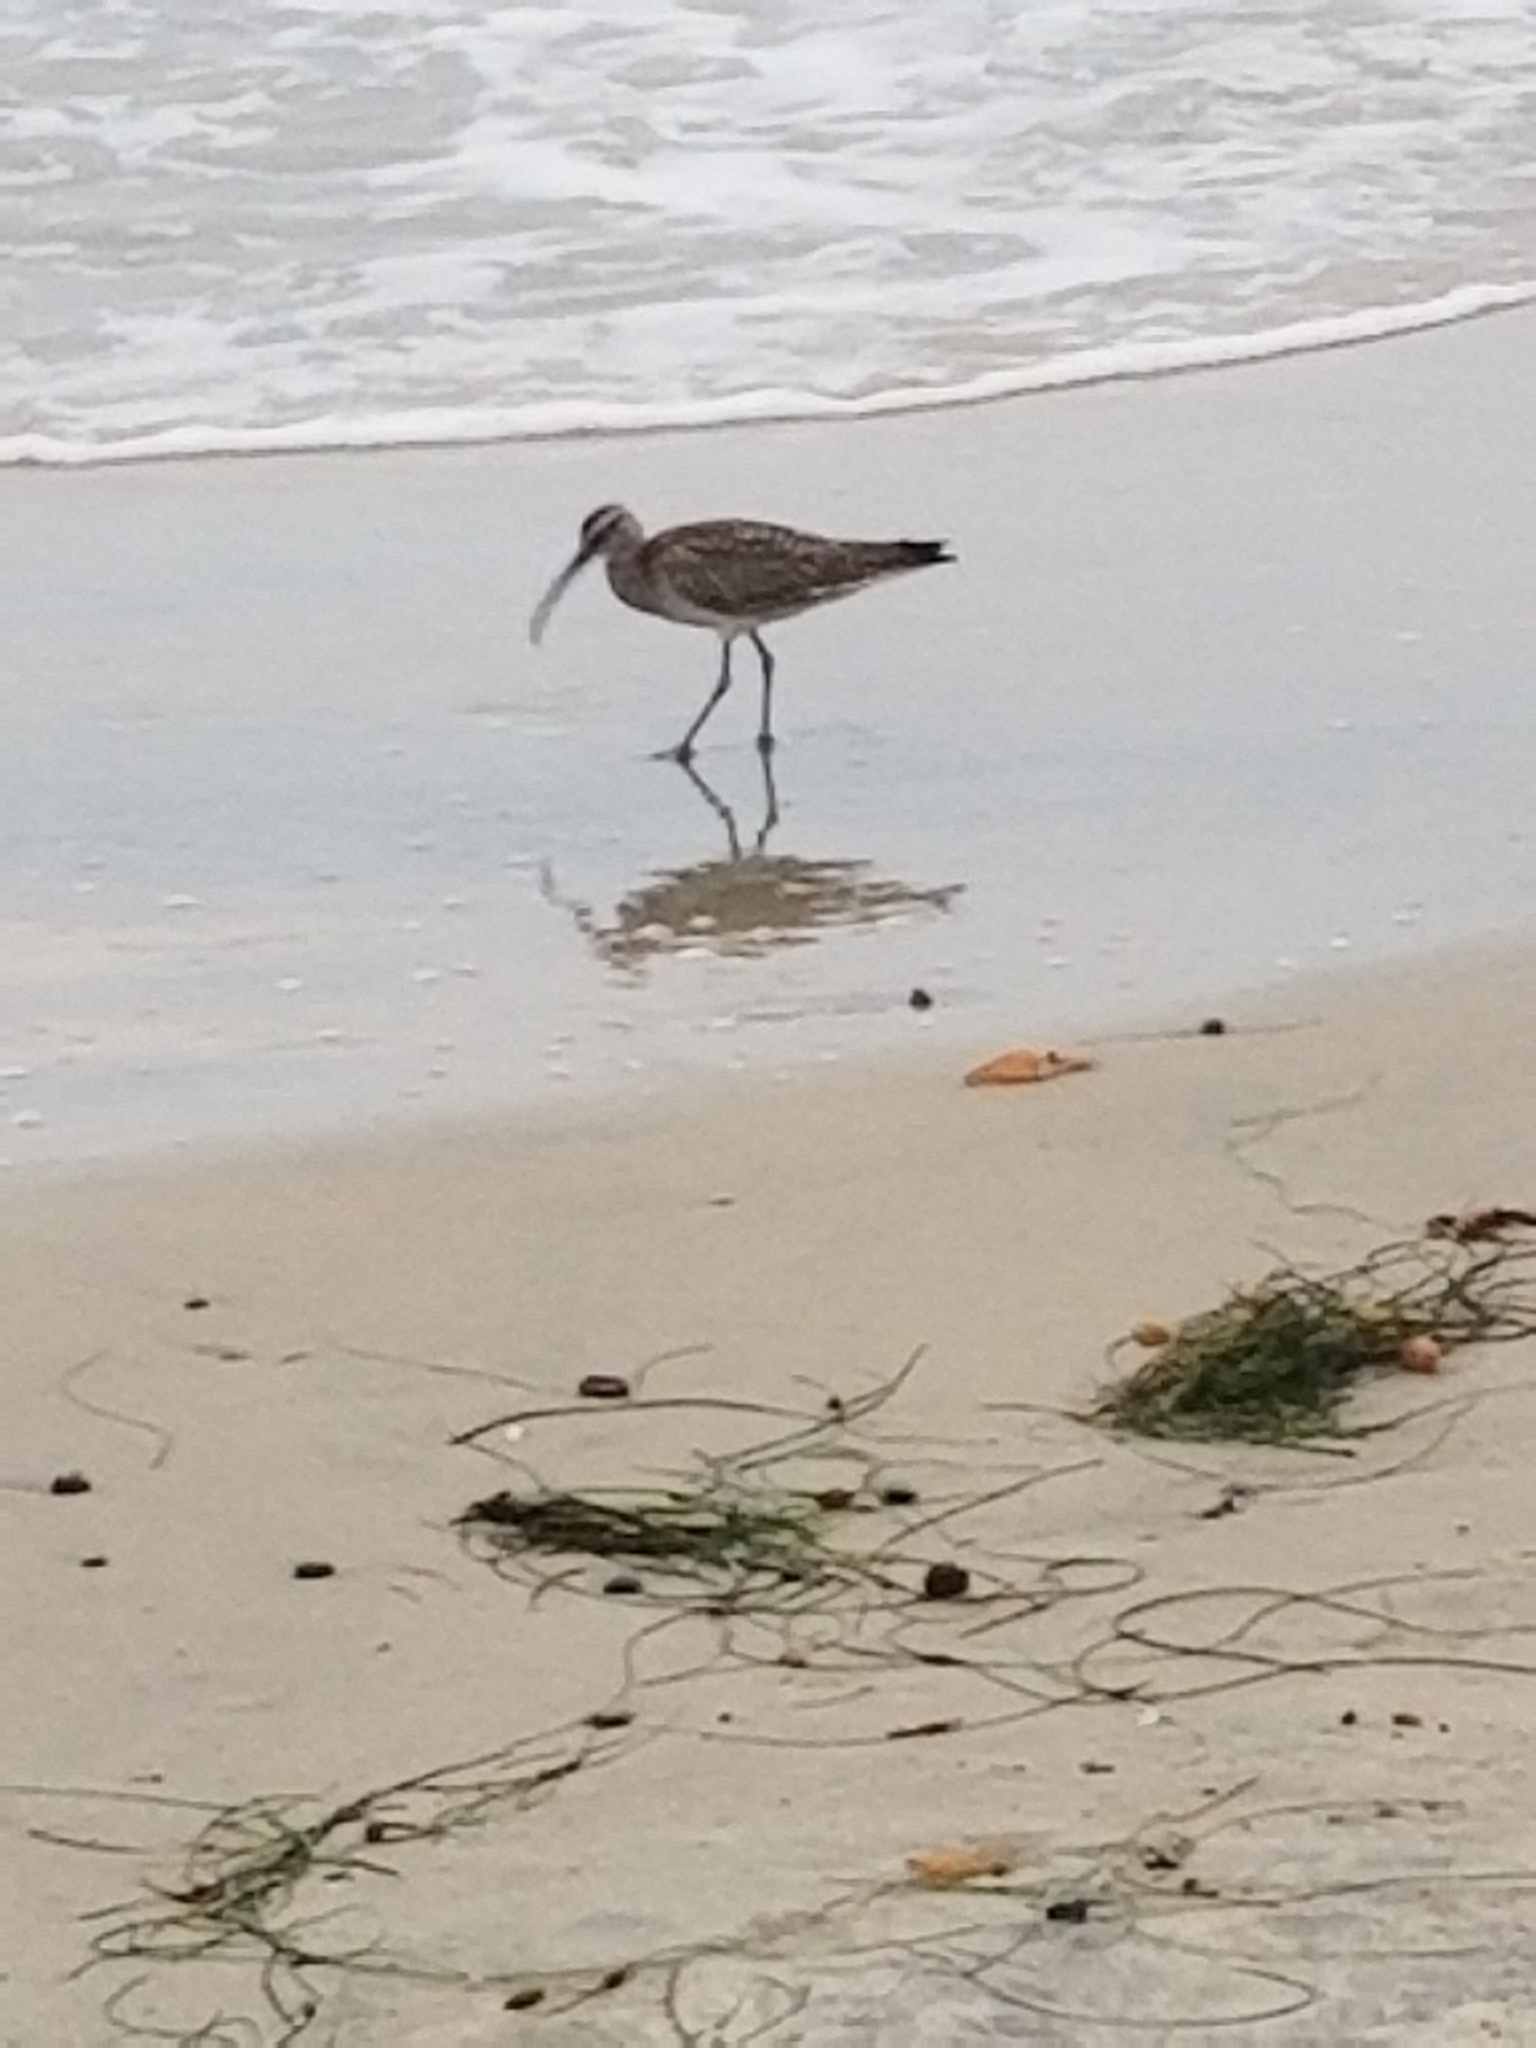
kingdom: Animalia
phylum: Chordata
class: Aves
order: Charadriiformes
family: Scolopacidae
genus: Numenius
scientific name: Numenius phaeopus
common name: Whimbrel
